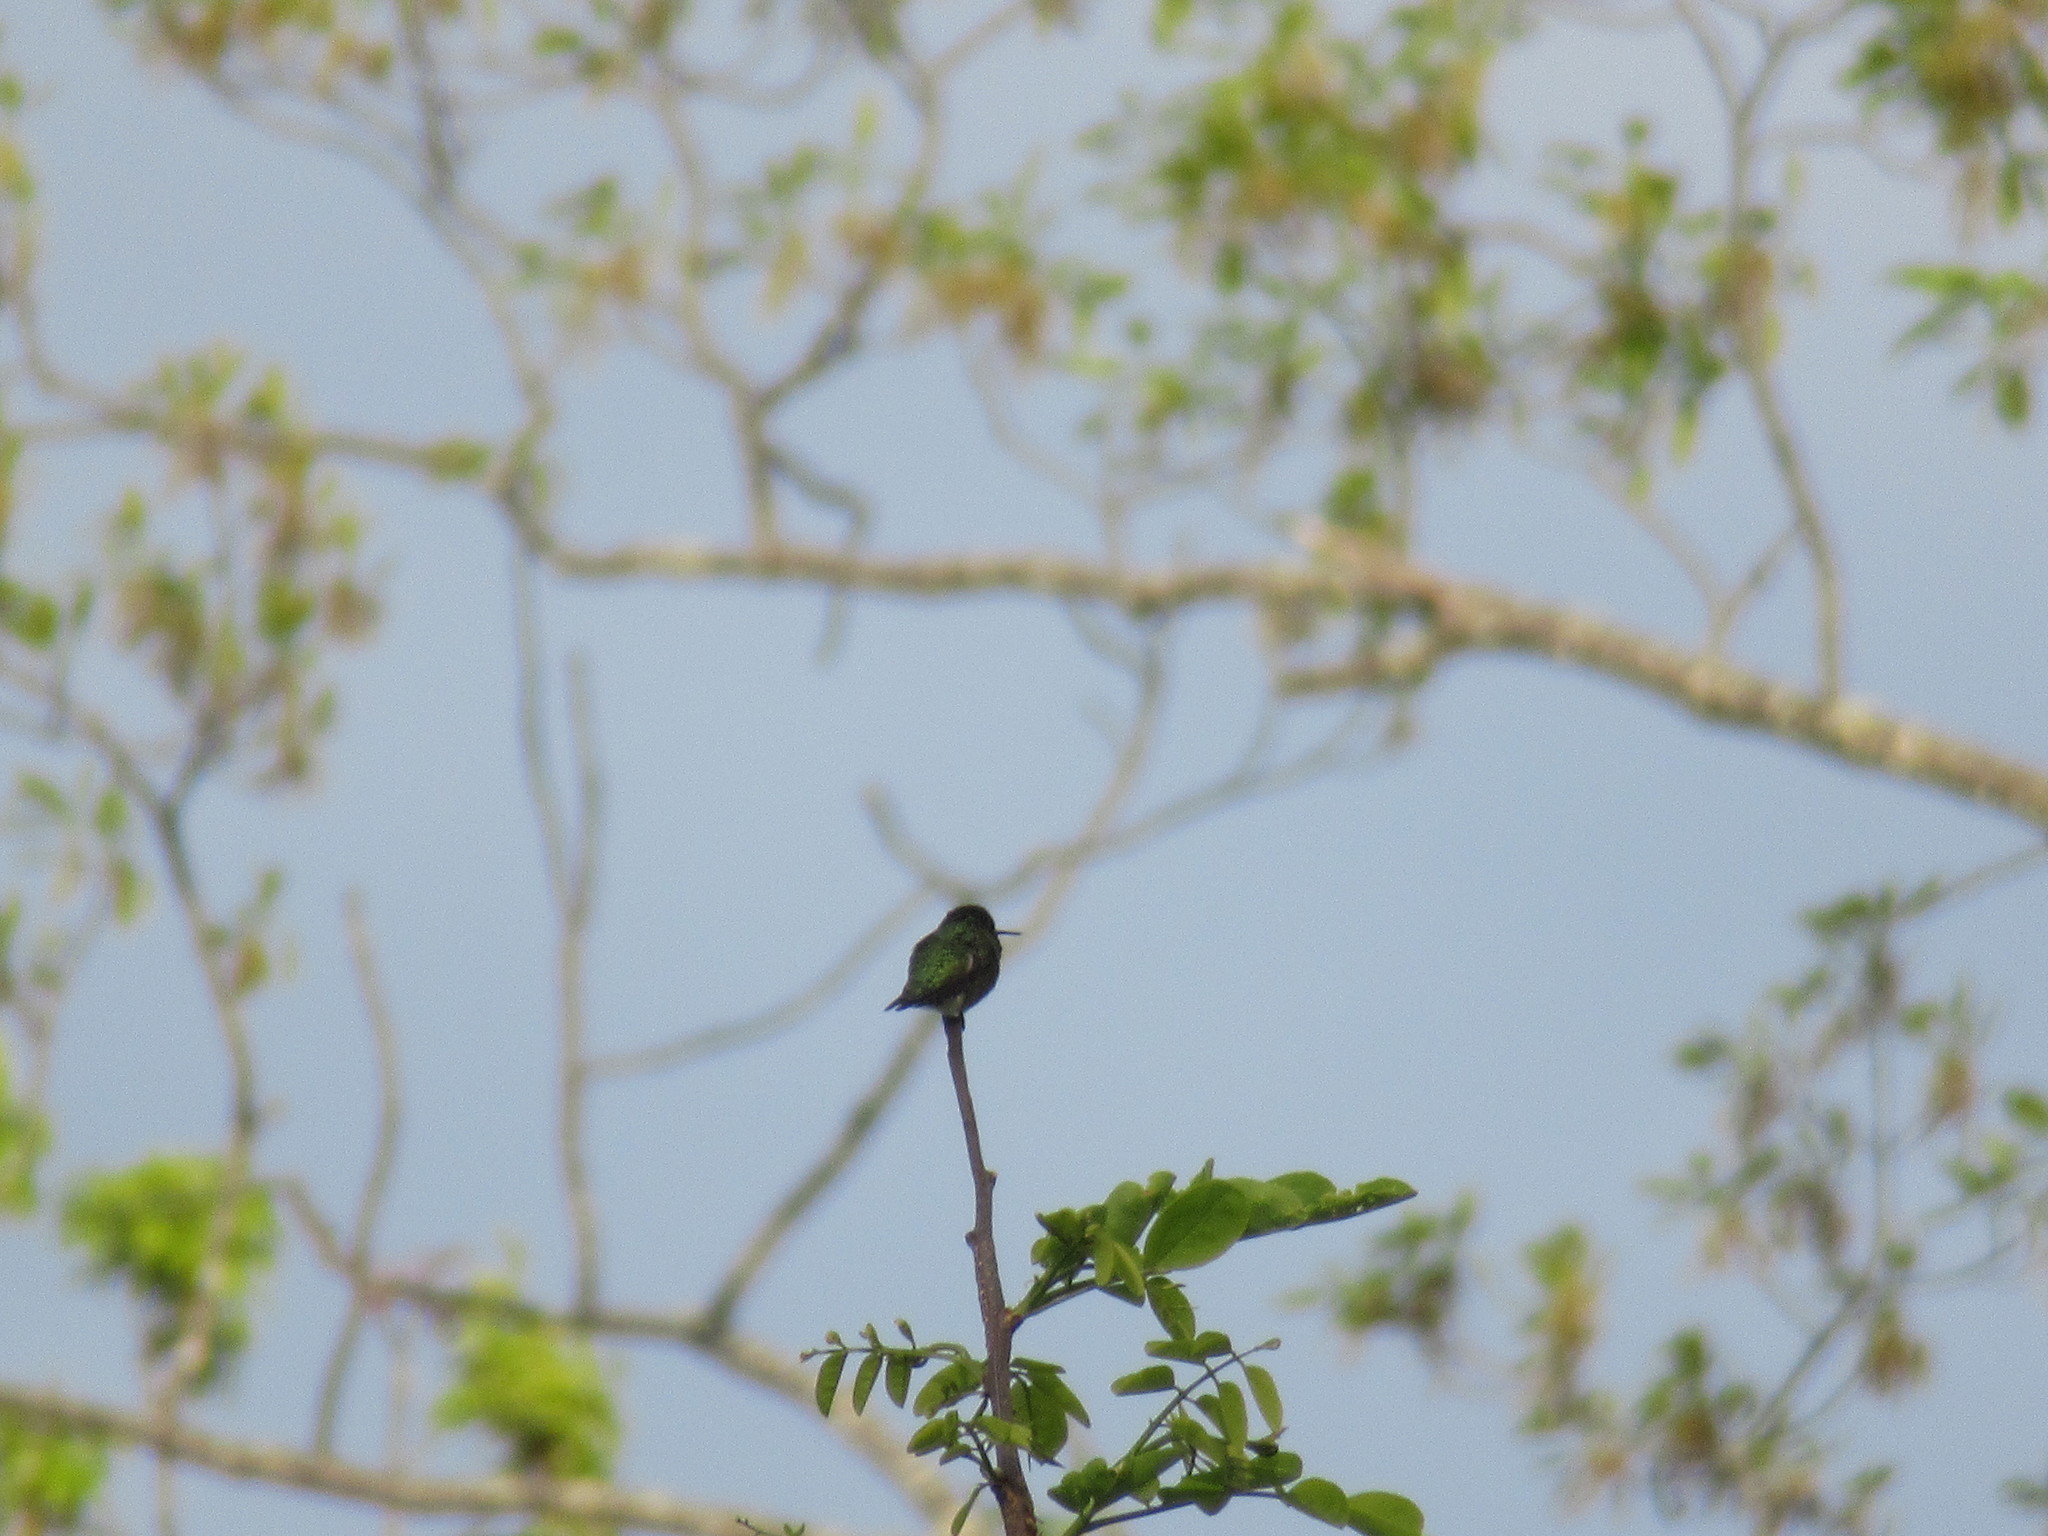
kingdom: Animalia
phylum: Chordata
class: Aves
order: Apodiformes
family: Trochilidae
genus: Archilochus
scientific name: Archilochus colubris
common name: Ruby-throated hummingbird
